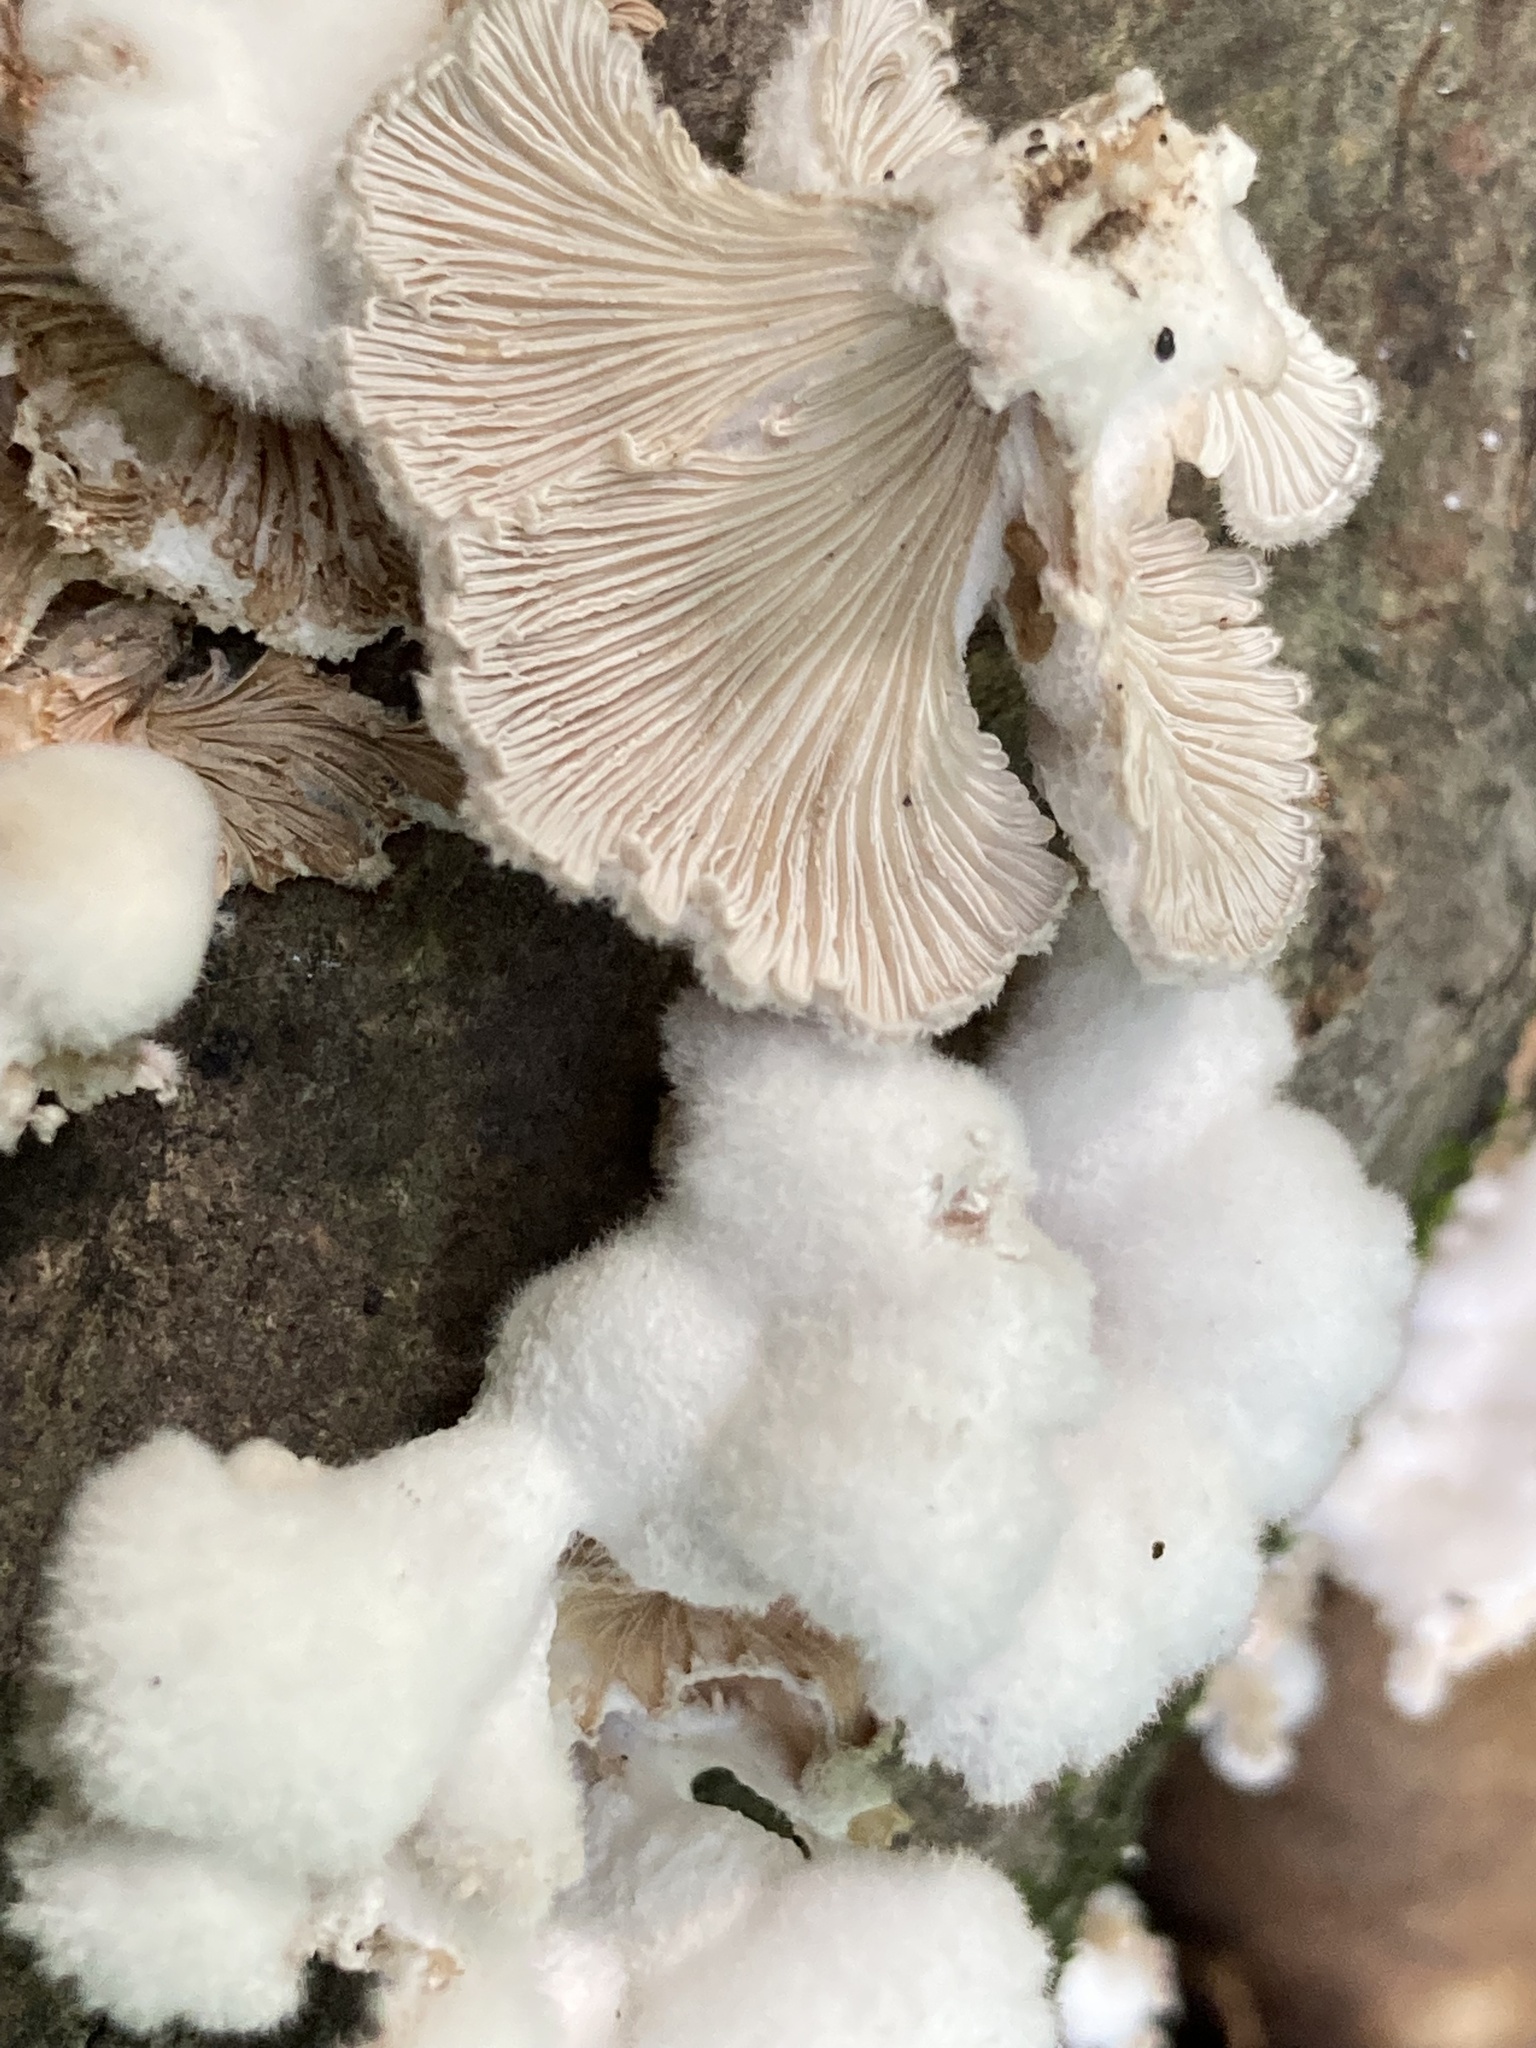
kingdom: Fungi
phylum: Basidiomycota
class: Agaricomycetes
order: Agaricales
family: Schizophyllaceae
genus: Schizophyllum
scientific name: Schizophyllum commune
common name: Common porecrust
